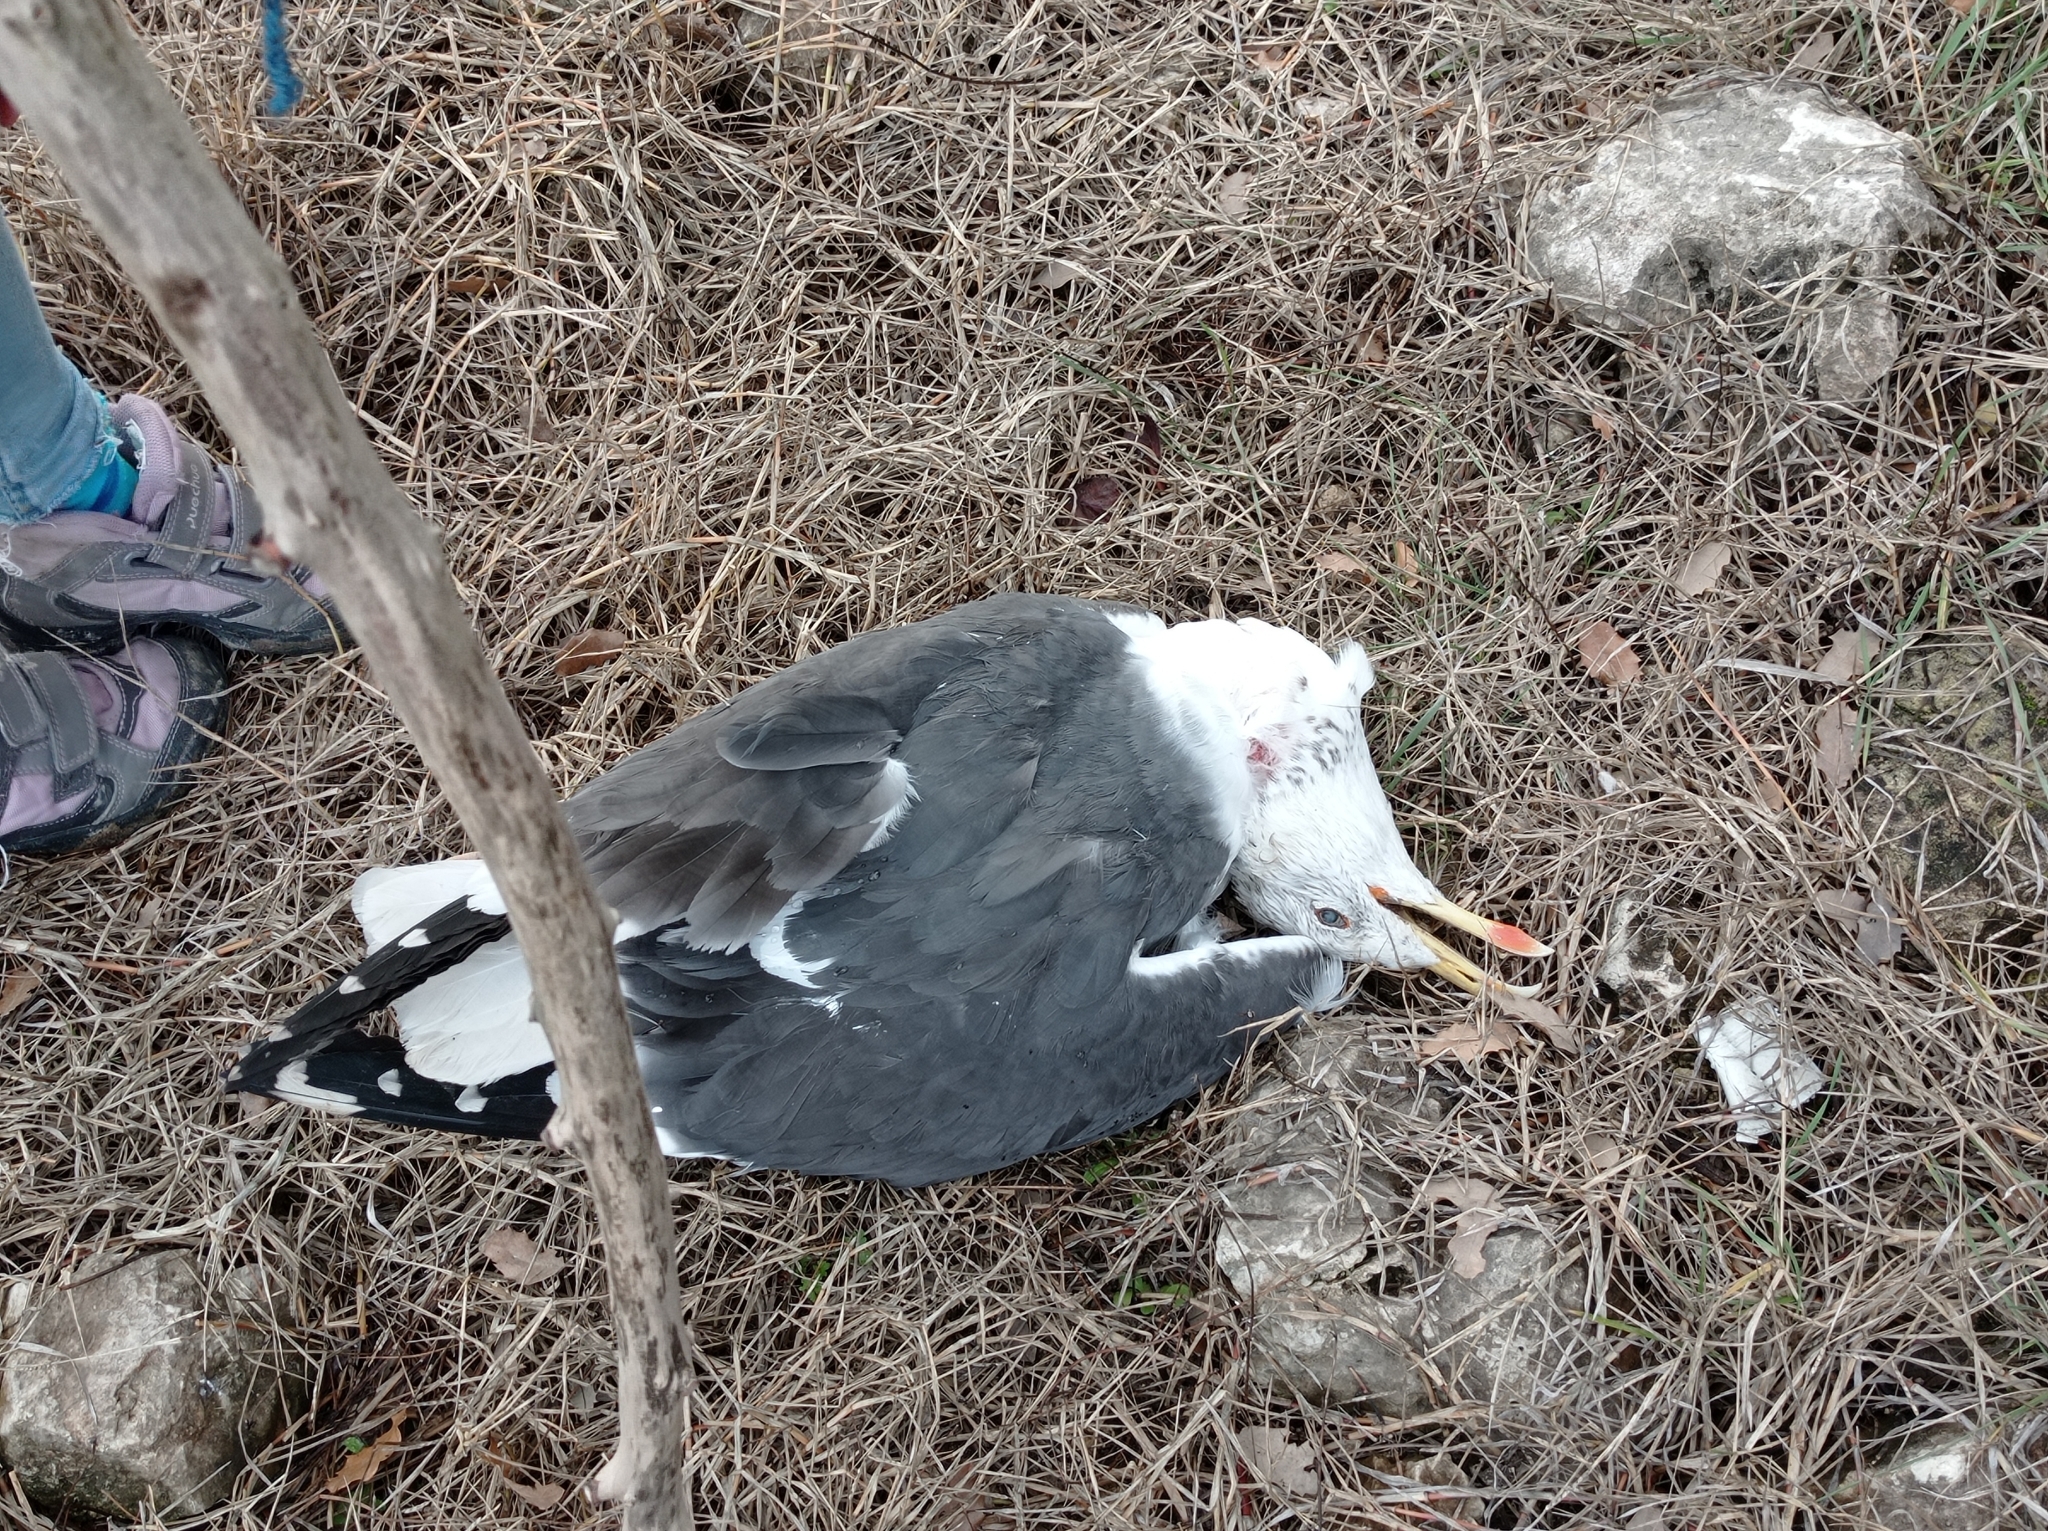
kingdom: Animalia
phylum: Chordata
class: Aves
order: Charadriiformes
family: Laridae
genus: Larus
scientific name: Larus fuscus
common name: Lesser black-backed gull
